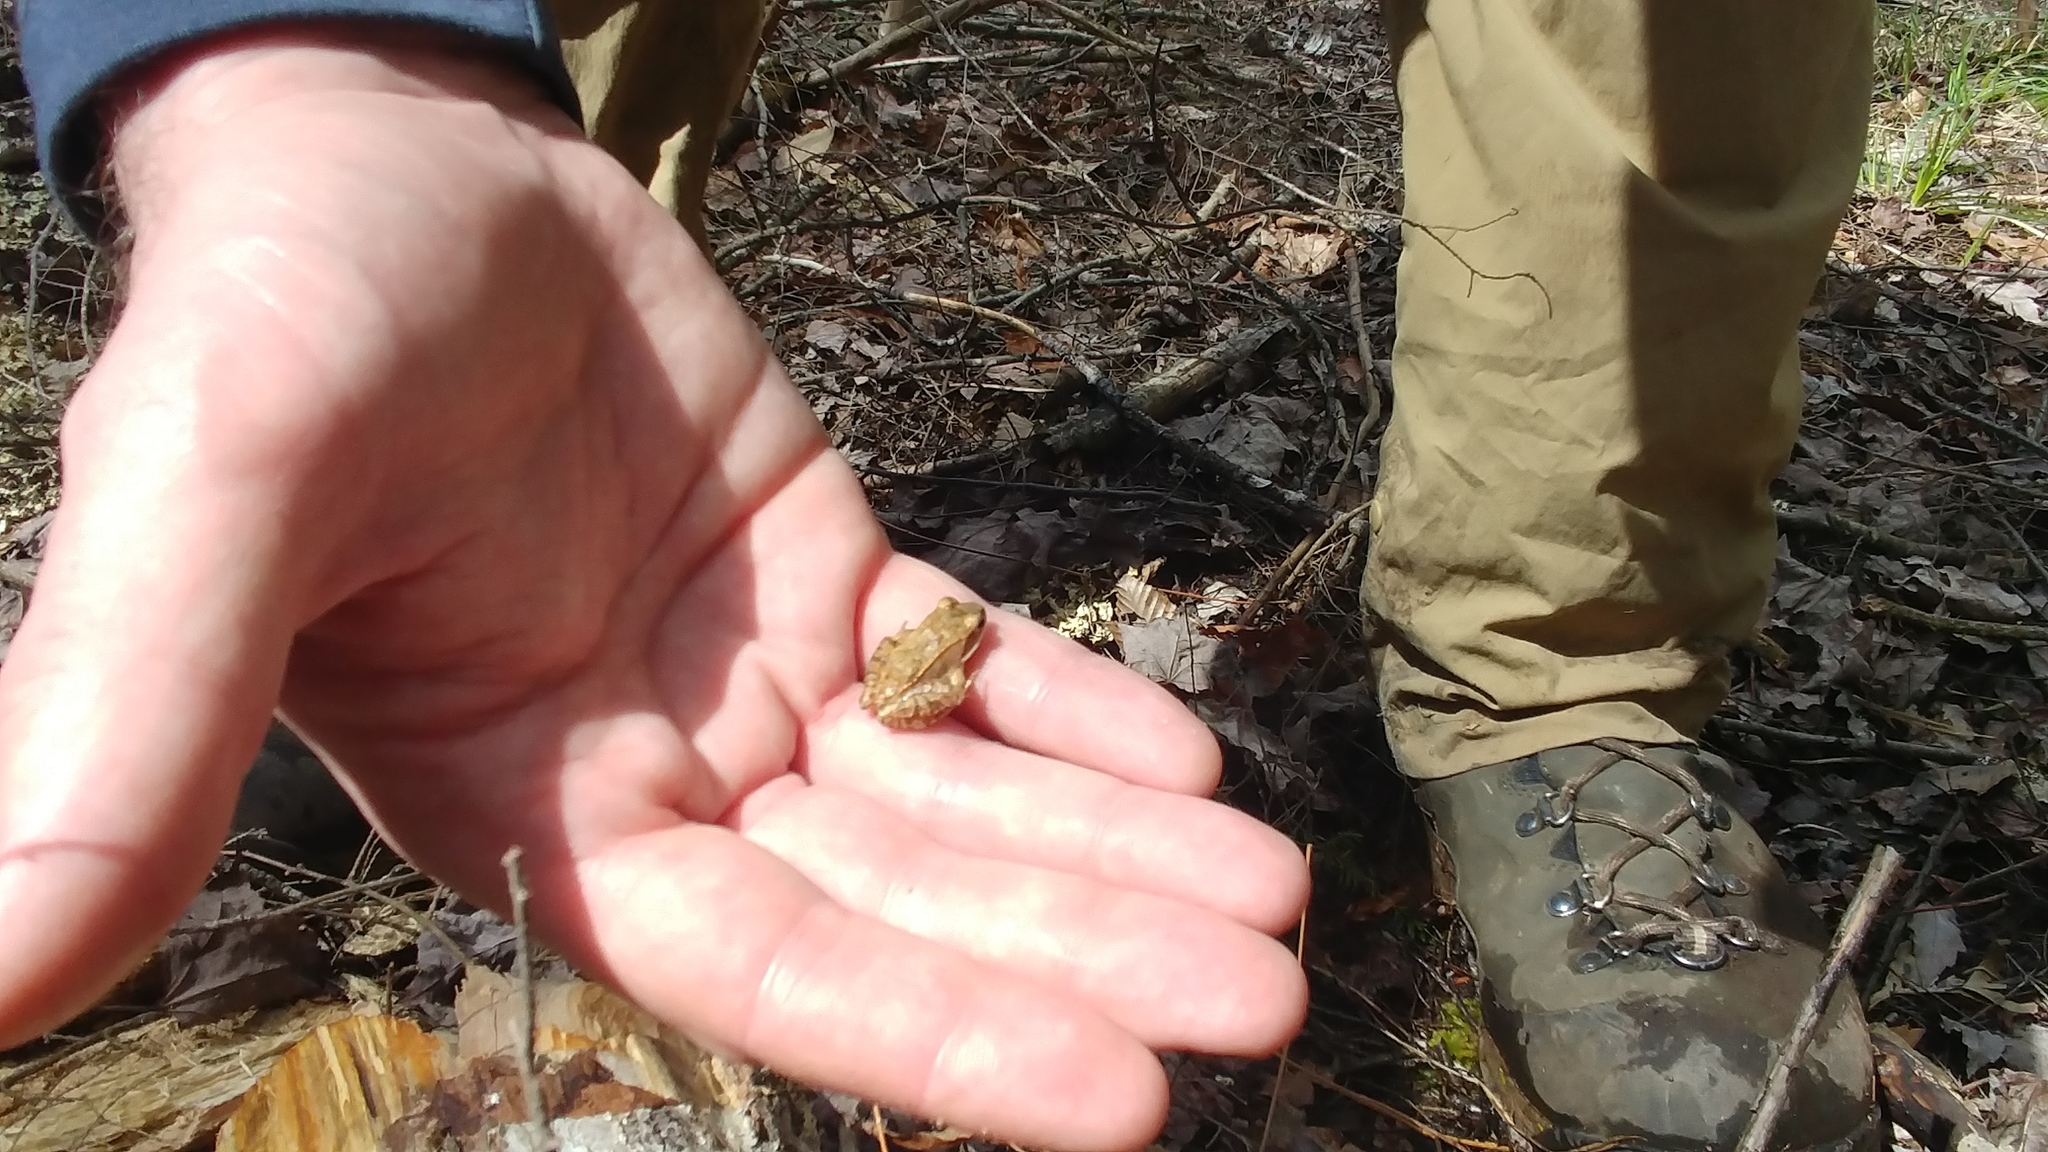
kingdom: Animalia
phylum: Chordata
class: Amphibia
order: Anura
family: Ranidae
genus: Lithobates
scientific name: Lithobates sylvaticus
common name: Wood frog
